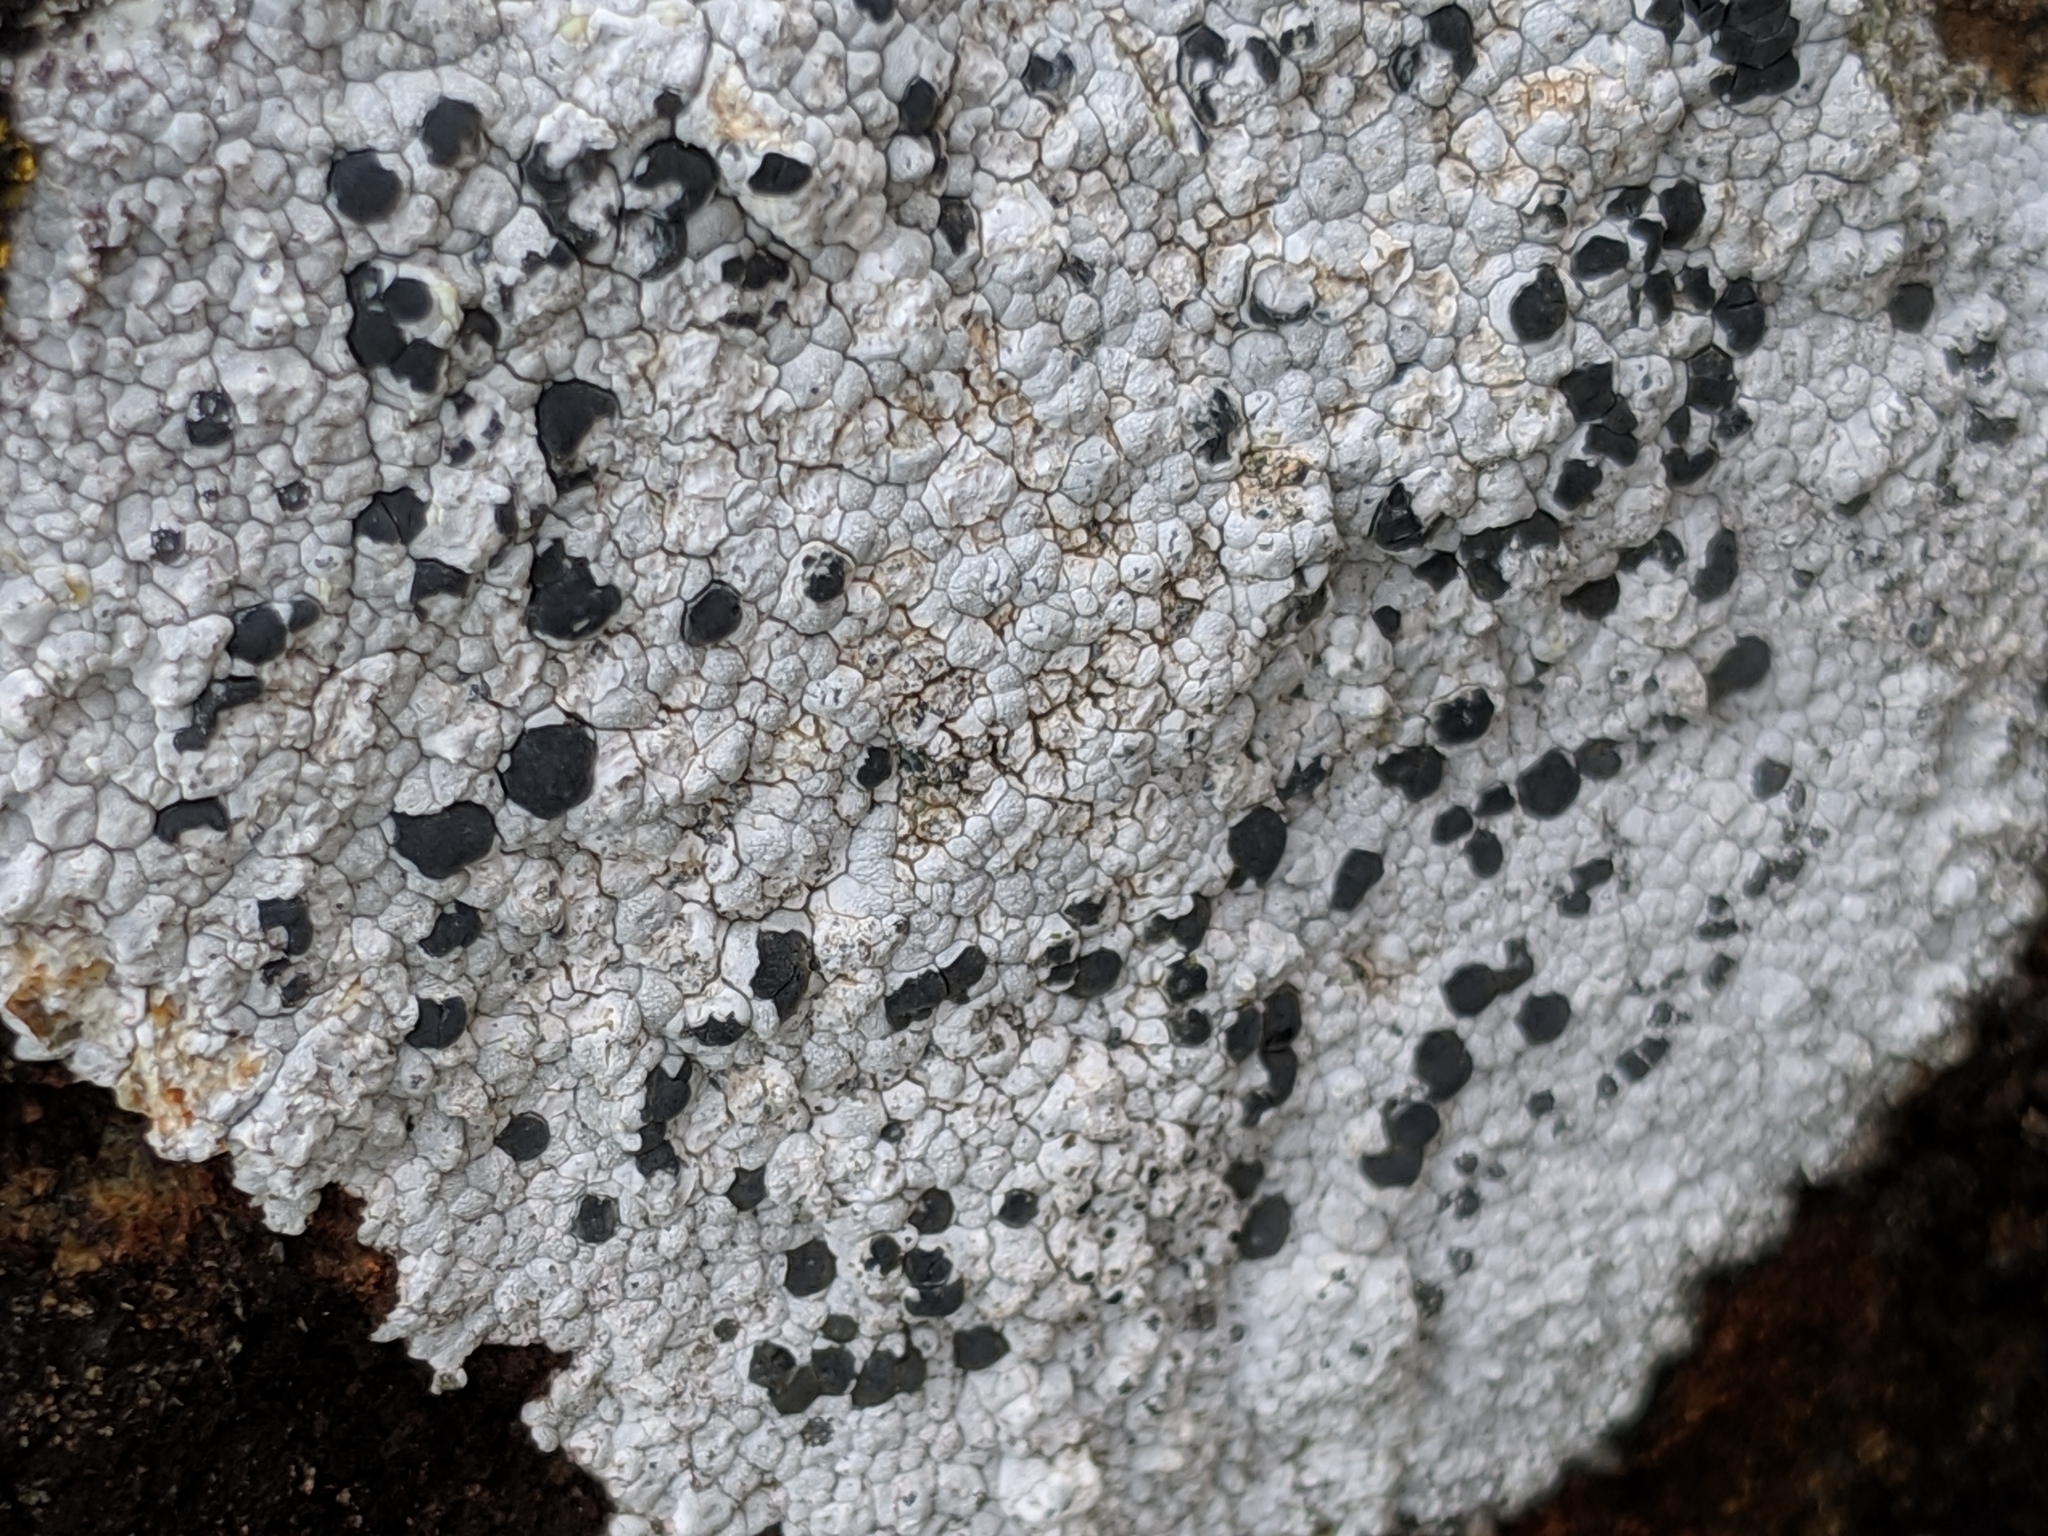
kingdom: Fungi
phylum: Ascomycota
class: Lecanoromycetes
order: Lecideales
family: Lecideaceae
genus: Lecidea
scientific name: Lecidea tessellata
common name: Tile lichen
